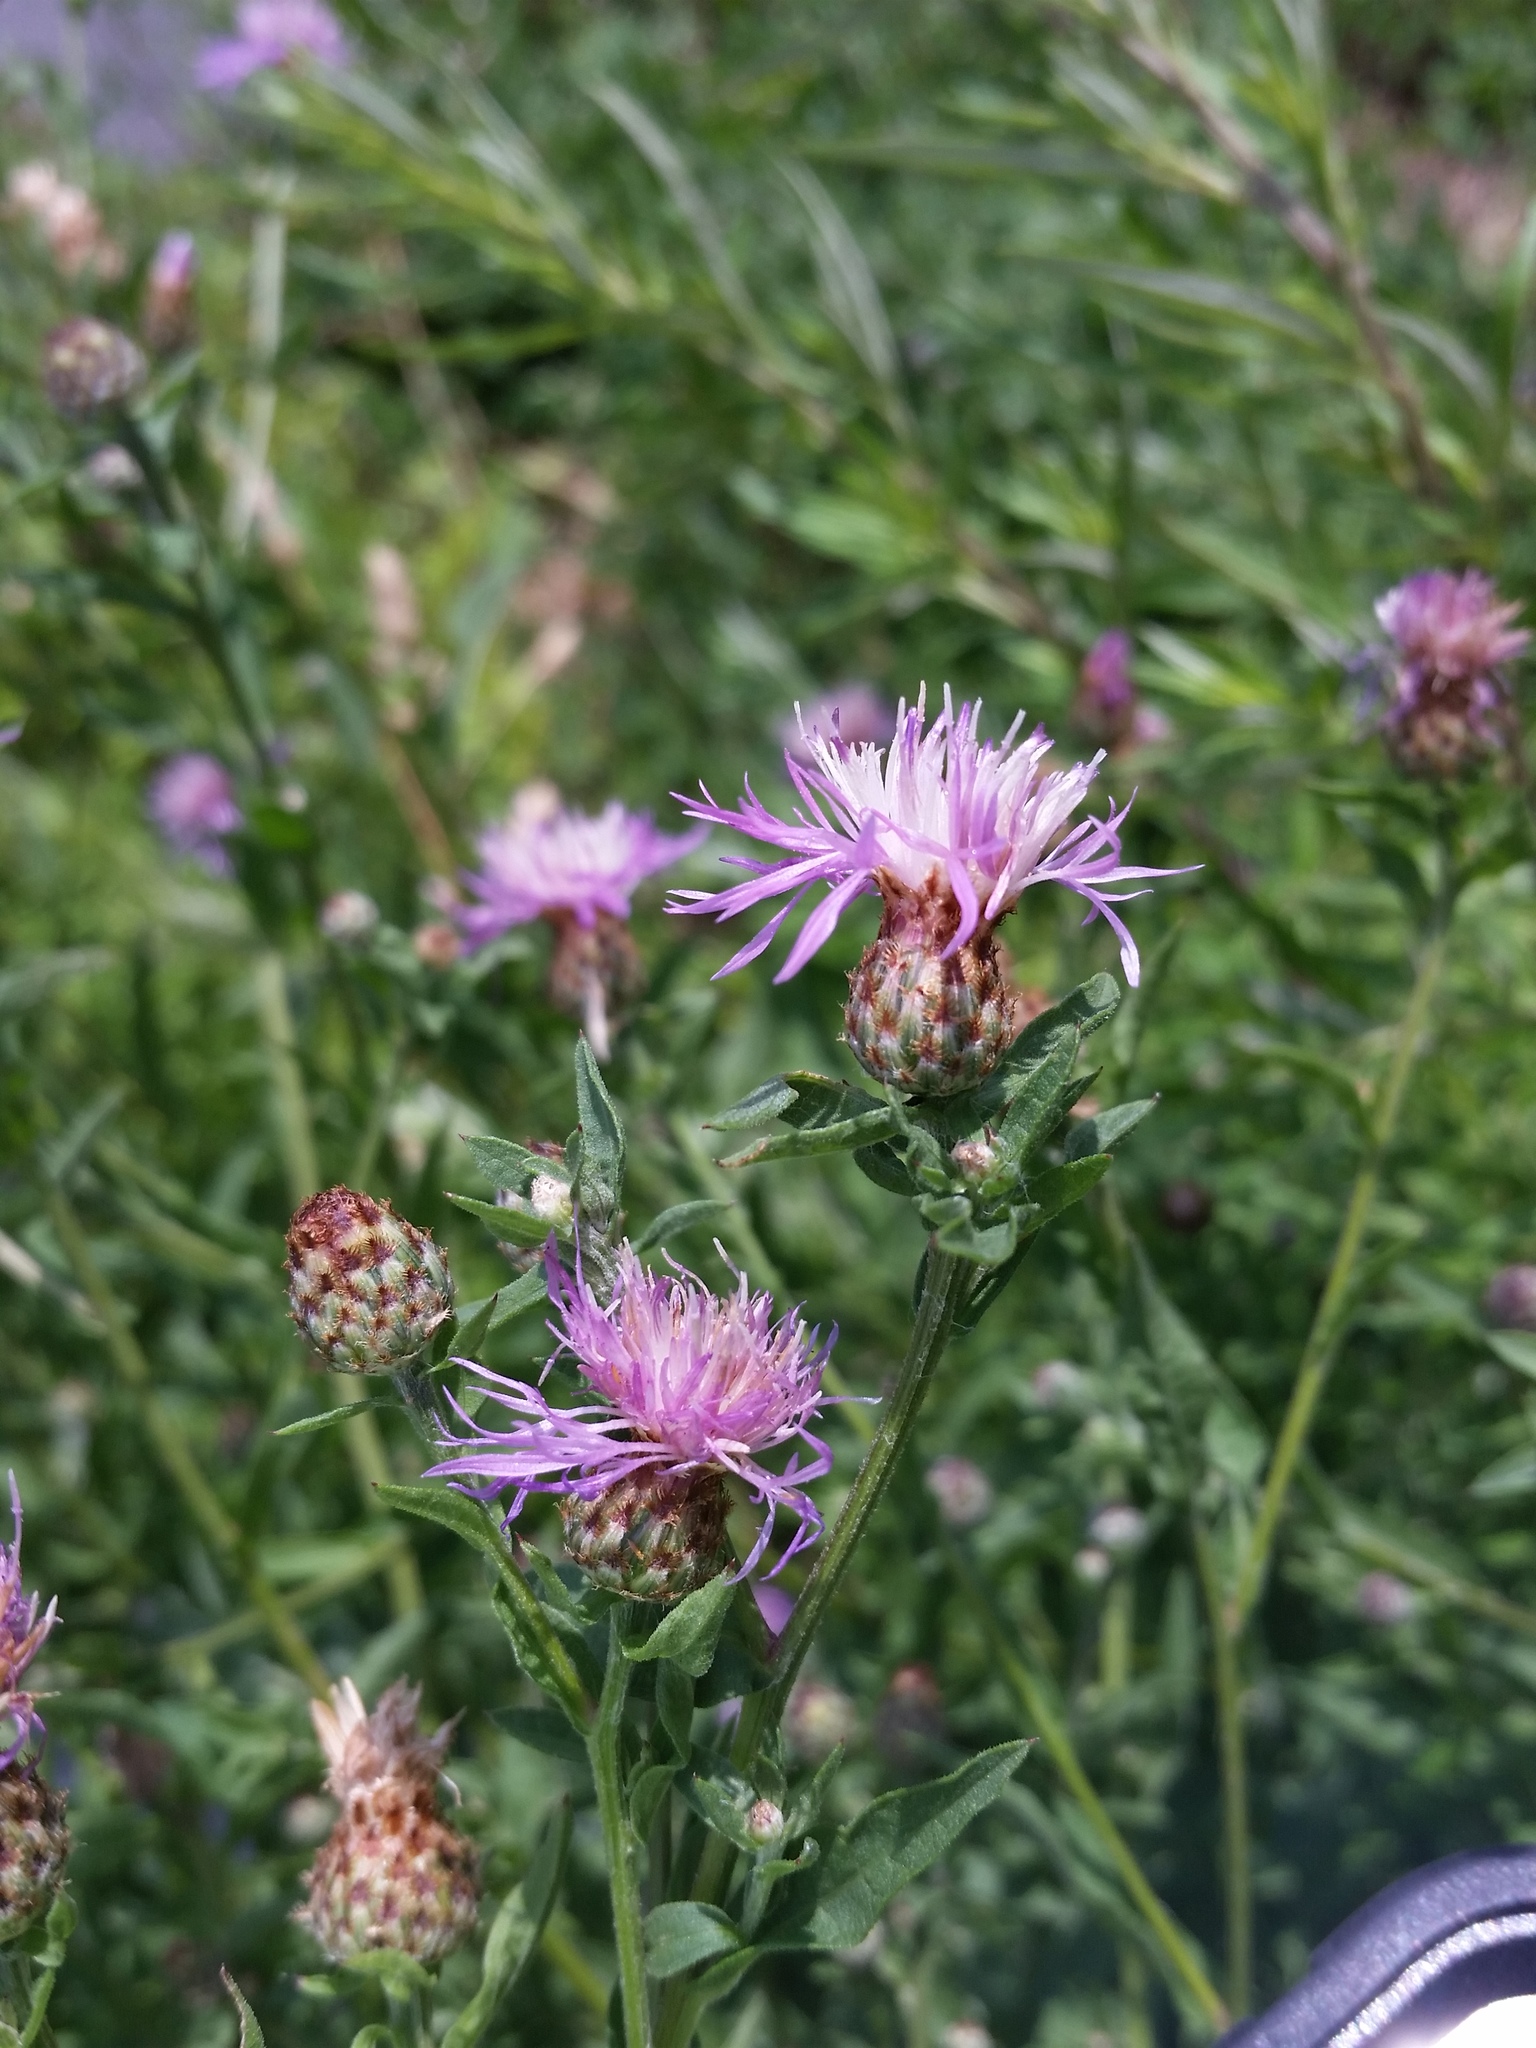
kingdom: Plantae
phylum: Tracheophyta
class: Magnoliopsida
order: Asterales
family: Asteraceae
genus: Centaurea
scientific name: Centaurea stoebe
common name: Spotted knapweed
